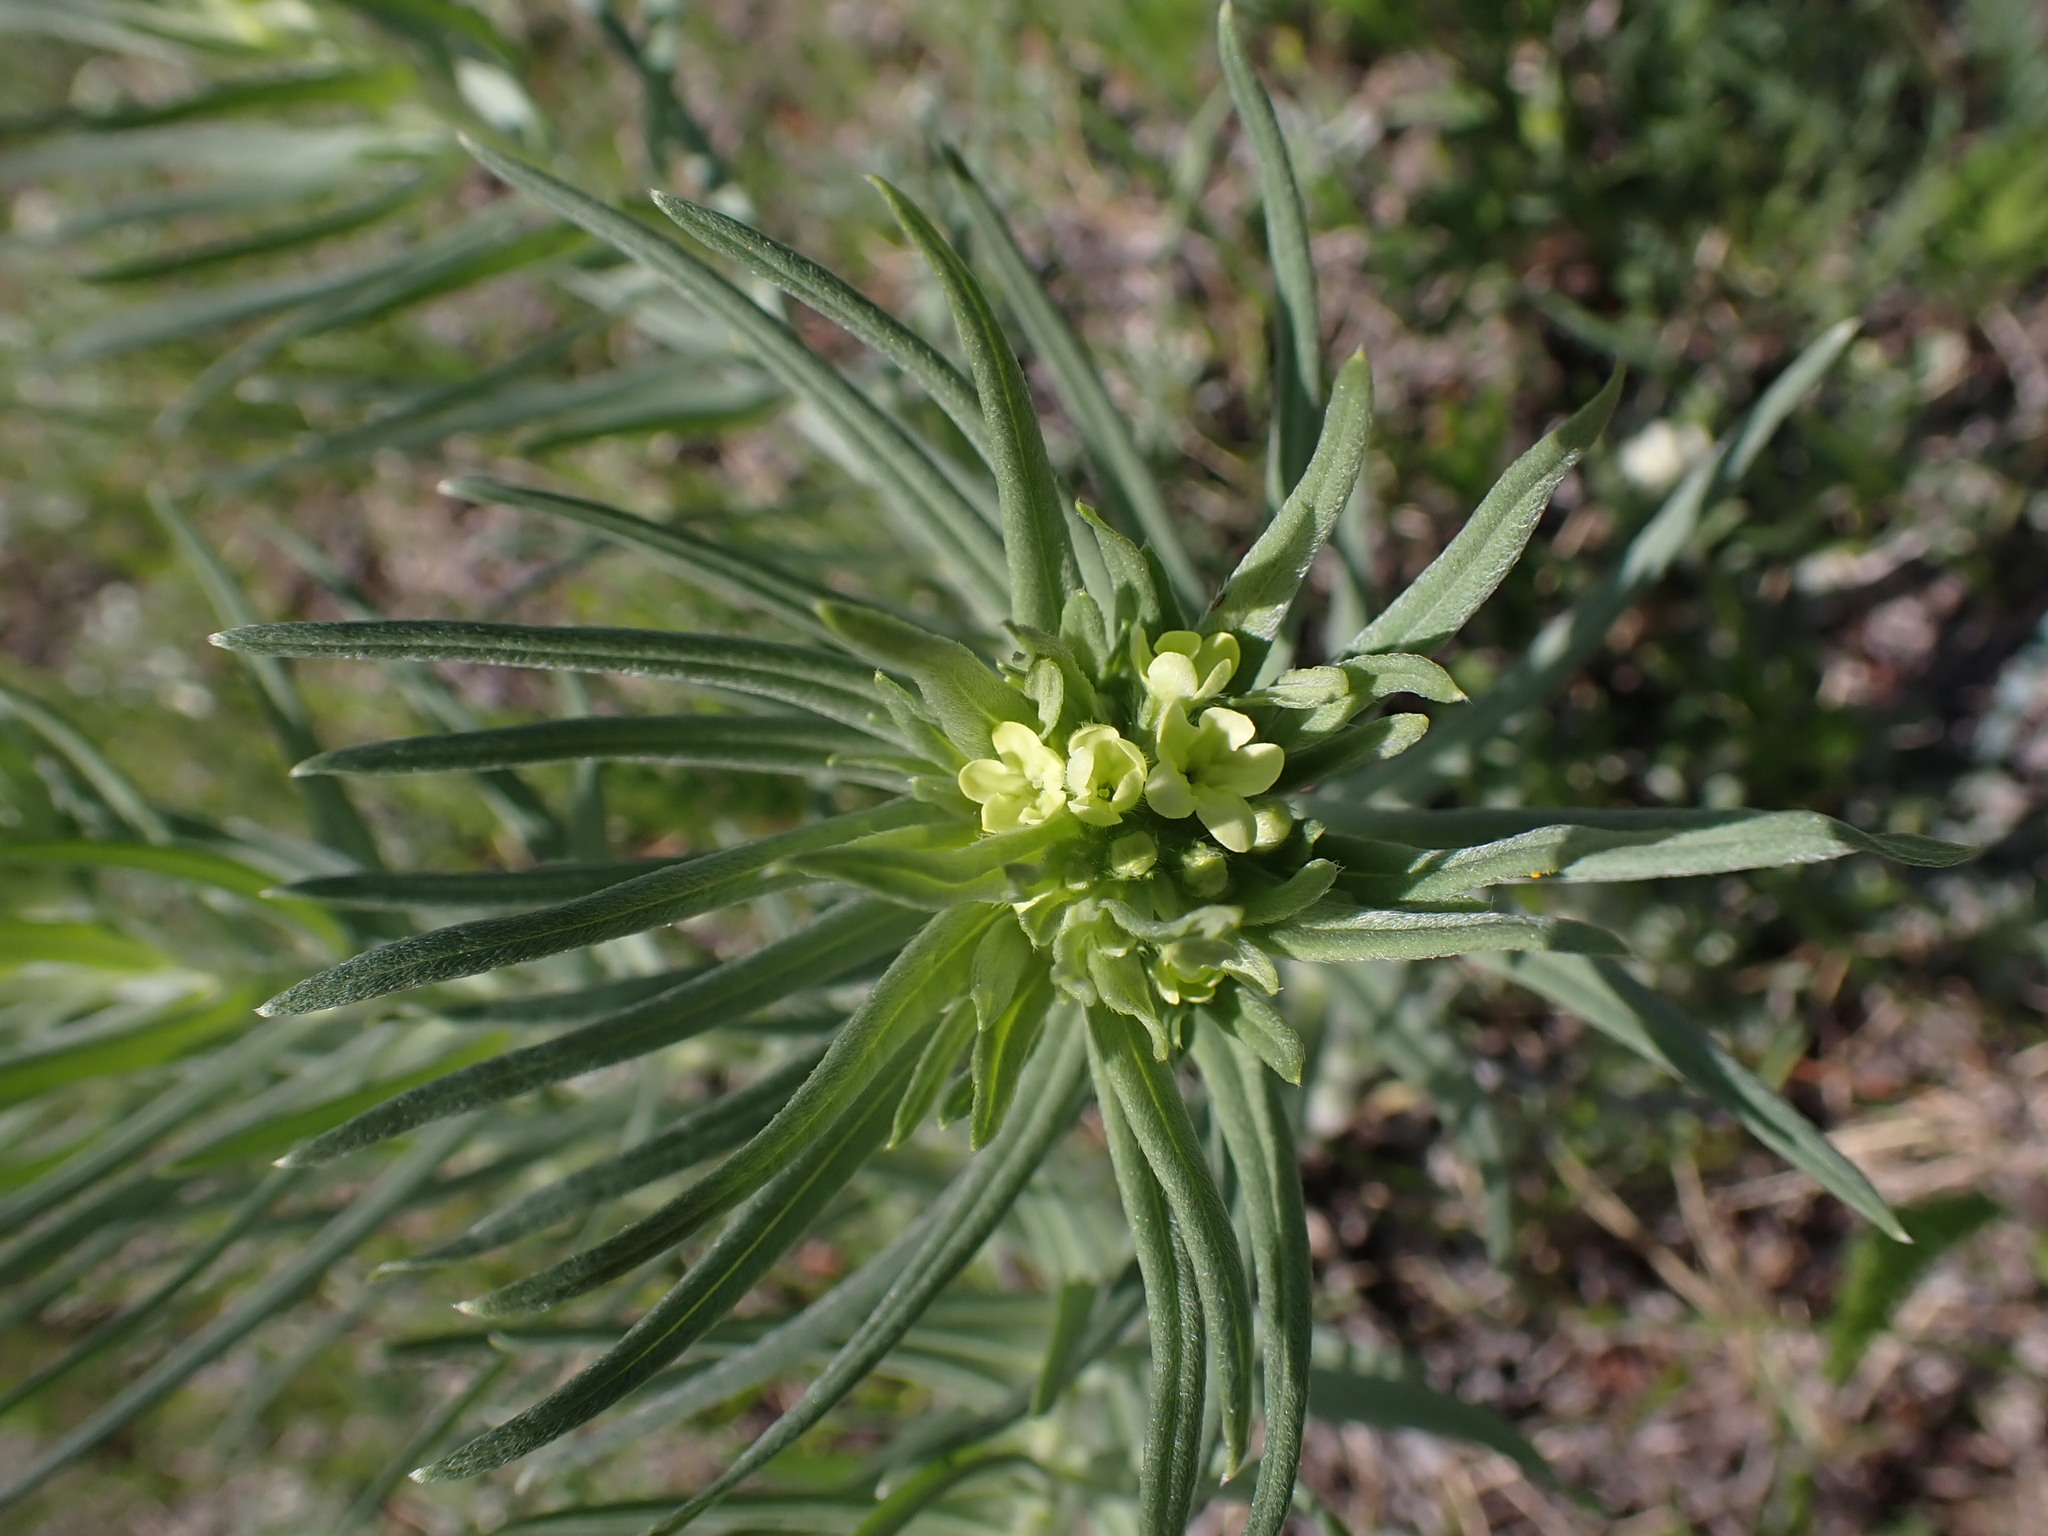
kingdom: Plantae
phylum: Tracheophyta
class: Magnoliopsida
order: Boraginales
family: Boraginaceae
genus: Lithospermum
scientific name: Lithospermum ruderale
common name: Western gromwell
